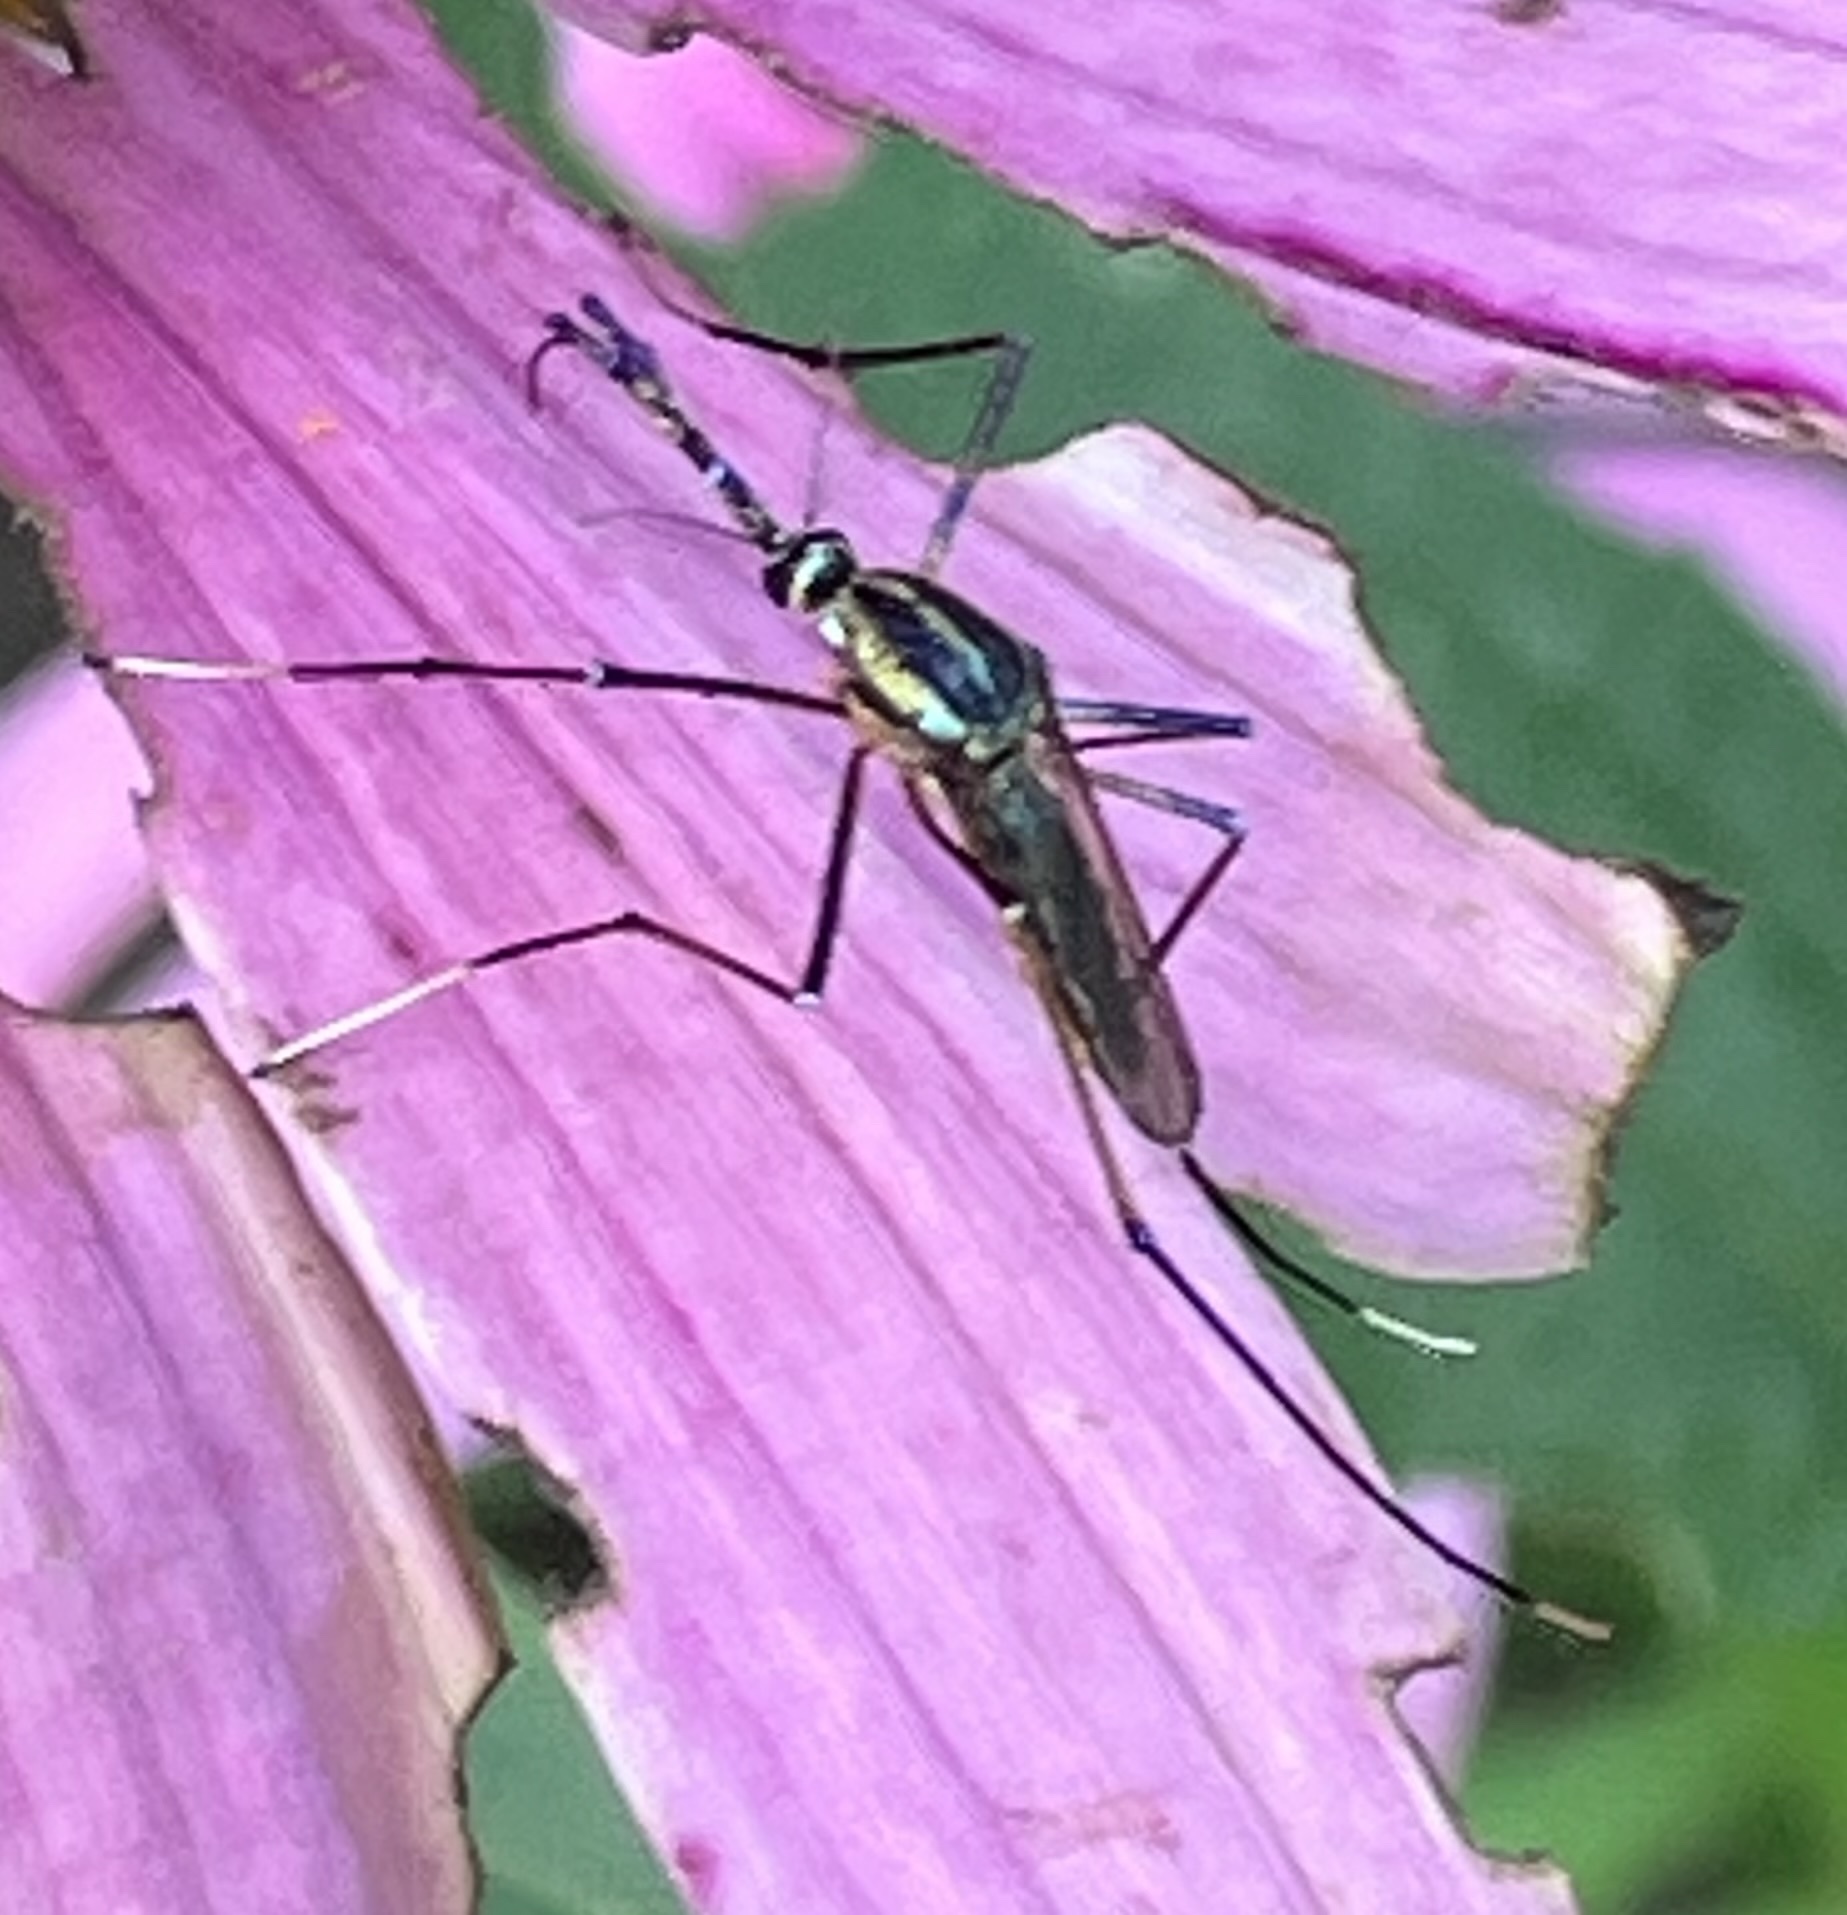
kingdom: Animalia
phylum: Arthropoda
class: Insecta
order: Diptera
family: Culicidae
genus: Toxorhynchites
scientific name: Toxorhynchites rutilus
